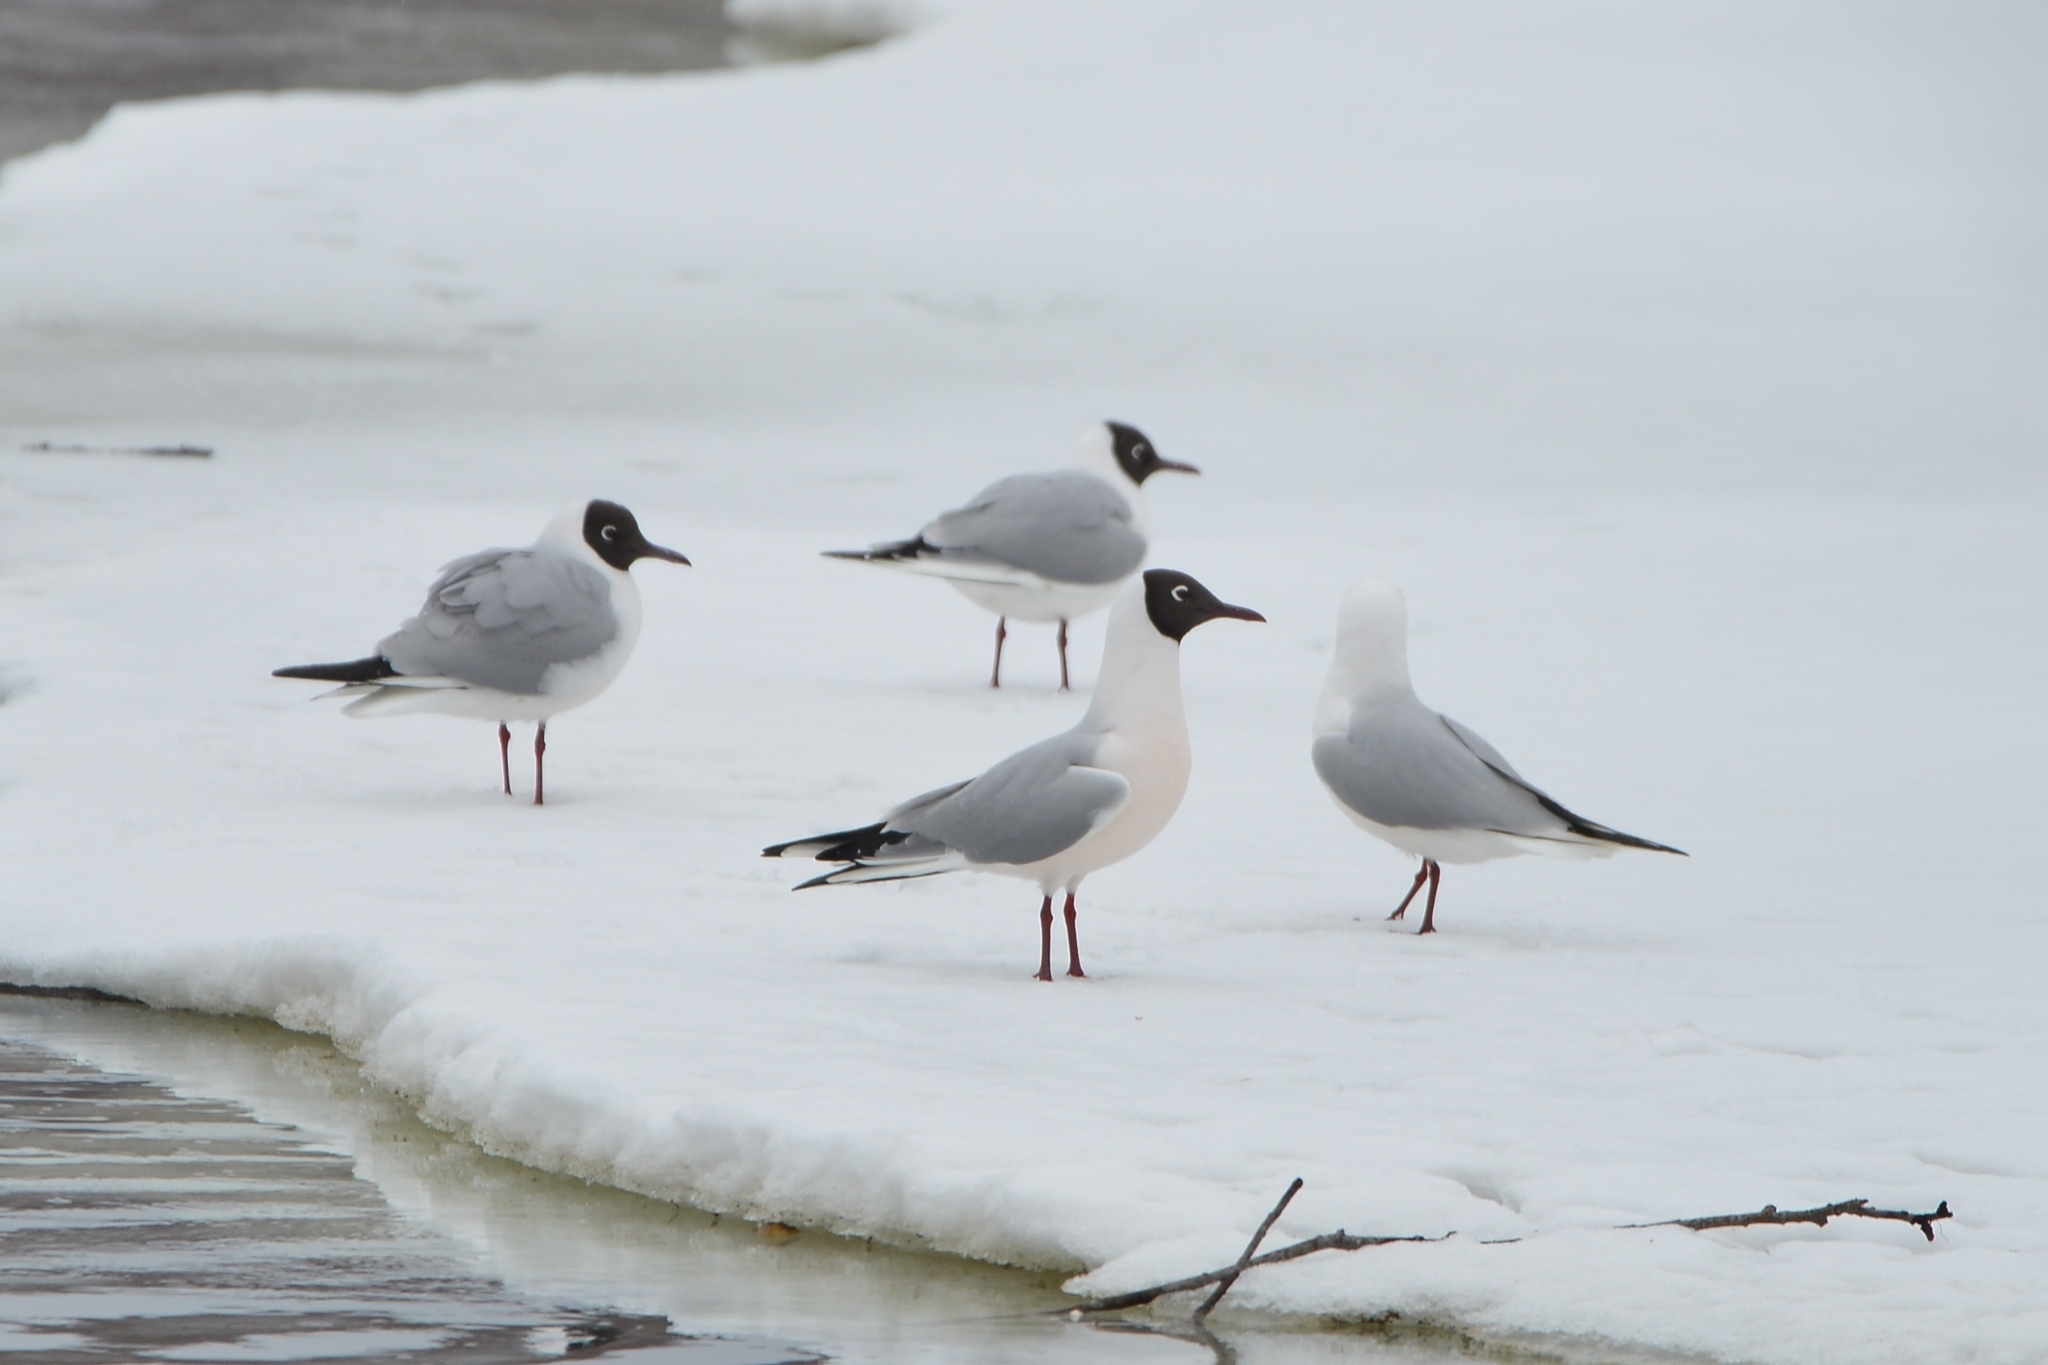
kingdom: Animalia
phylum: Chordata
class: Aves
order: Charadriiformes
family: Laridae
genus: Chroicocephalus
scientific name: Chroicocephalus ridibundus
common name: Black-headed gull
